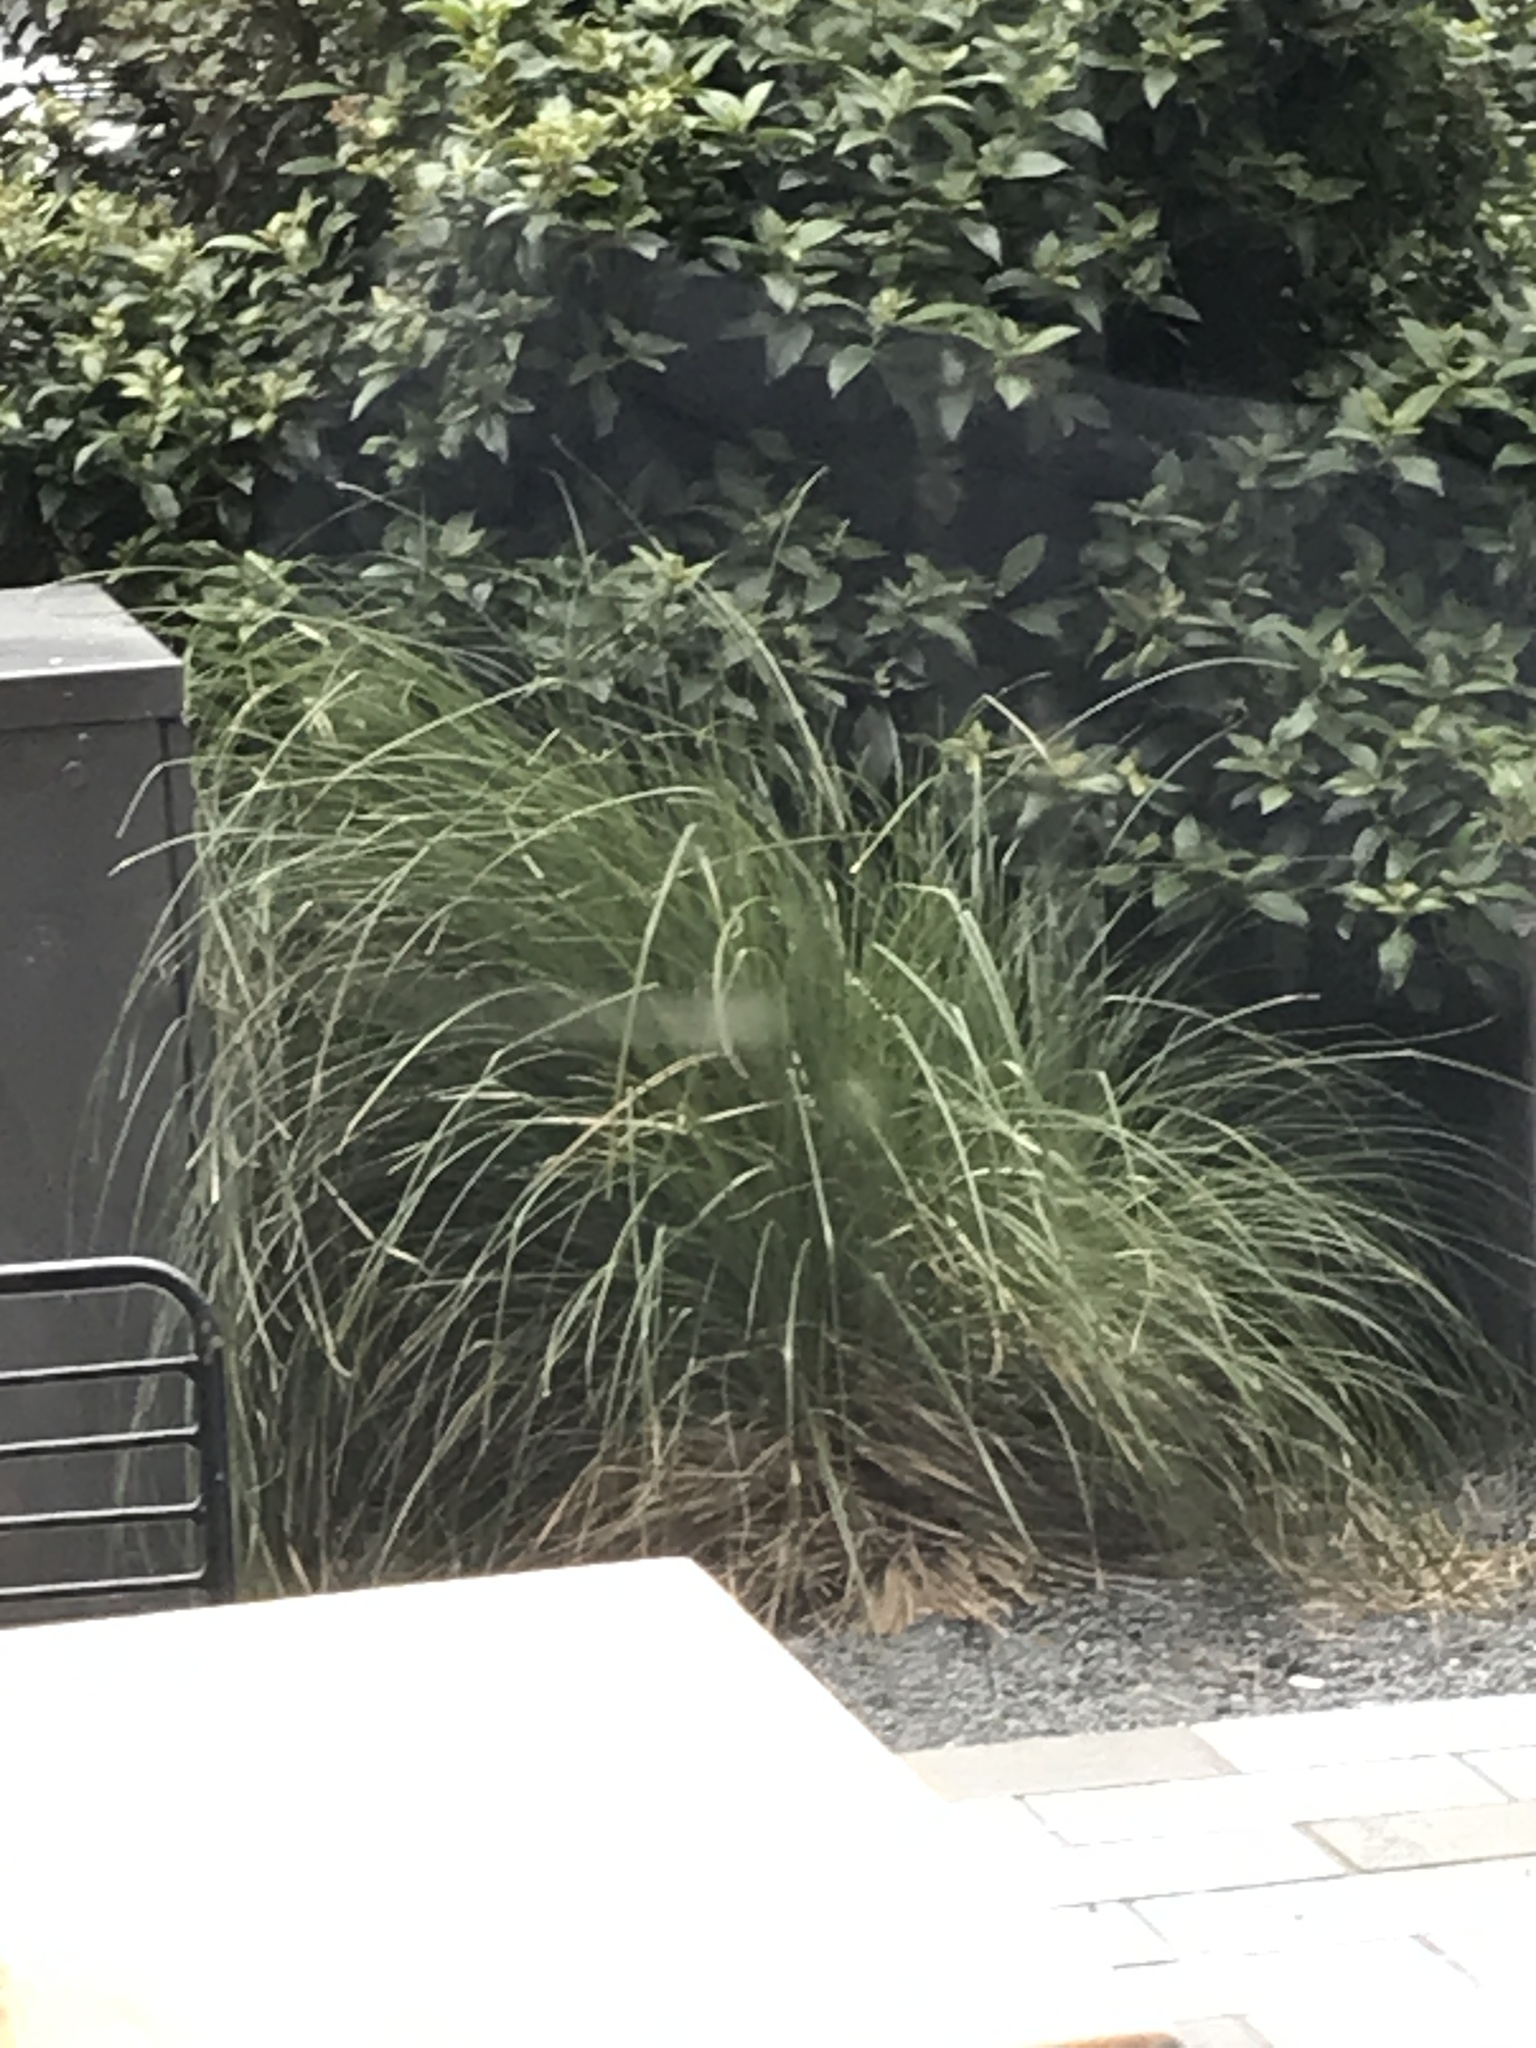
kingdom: Plantae
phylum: Tracheophyta
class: Liliopsida
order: Poales
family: Cyperaceae
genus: Carex
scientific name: Carex secta
